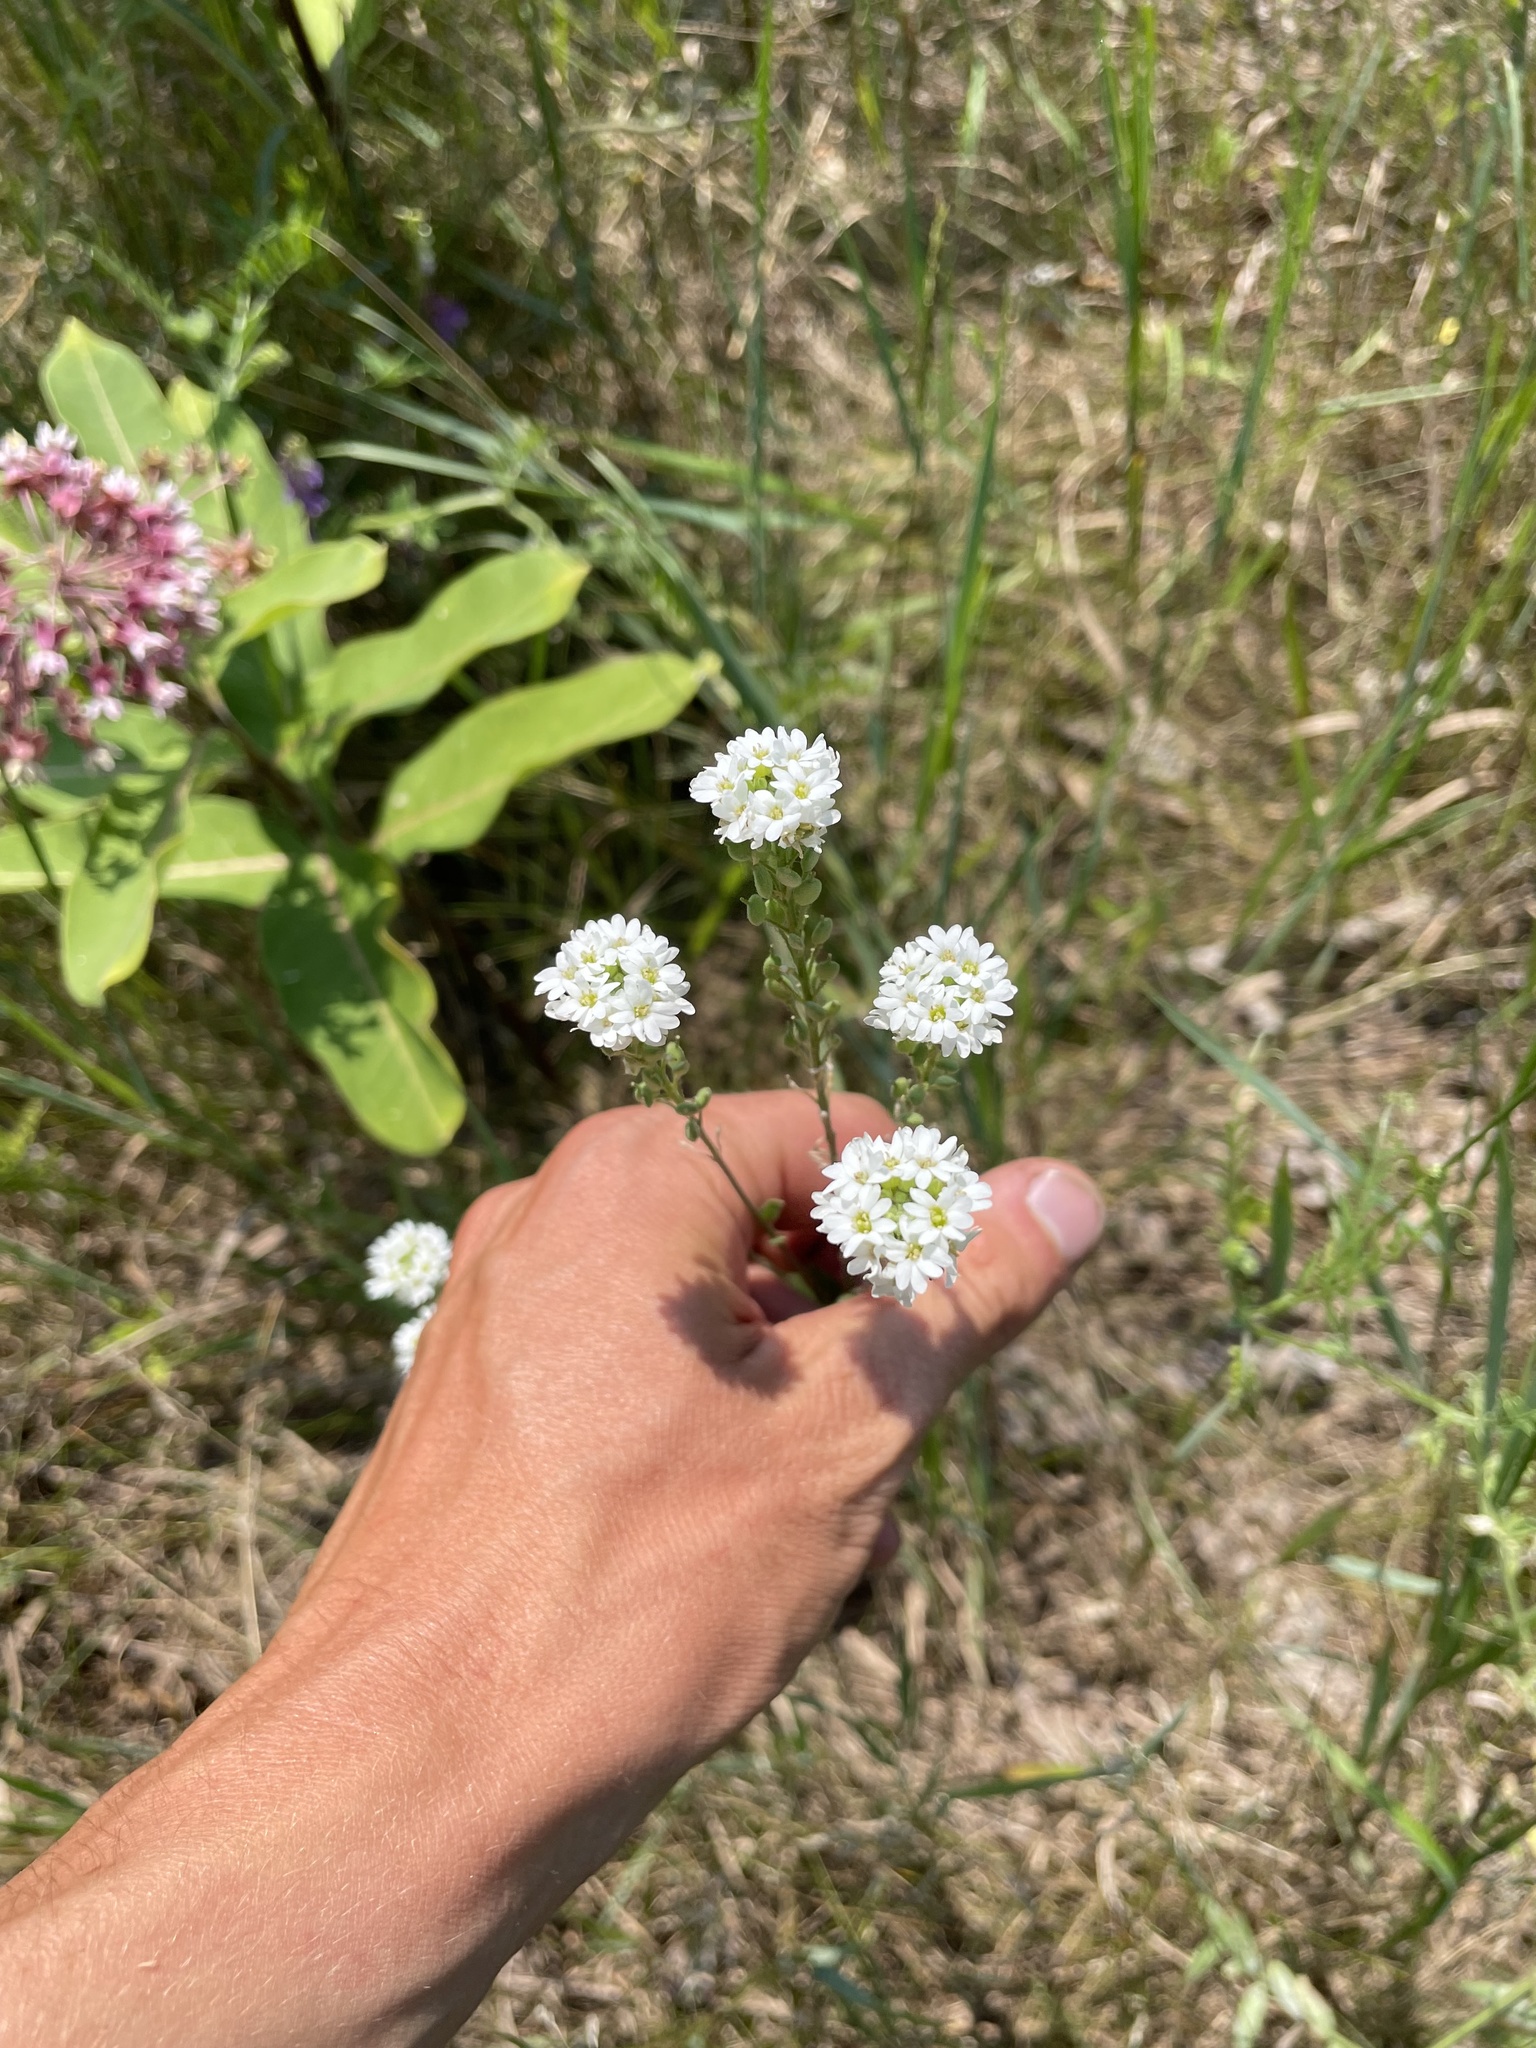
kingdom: Plantae
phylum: Tracheophyta
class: Magnoliopsida
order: Brassicales
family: Brassicaceae
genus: Berteroa
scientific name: Berteroa incana
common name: Hoary alison
